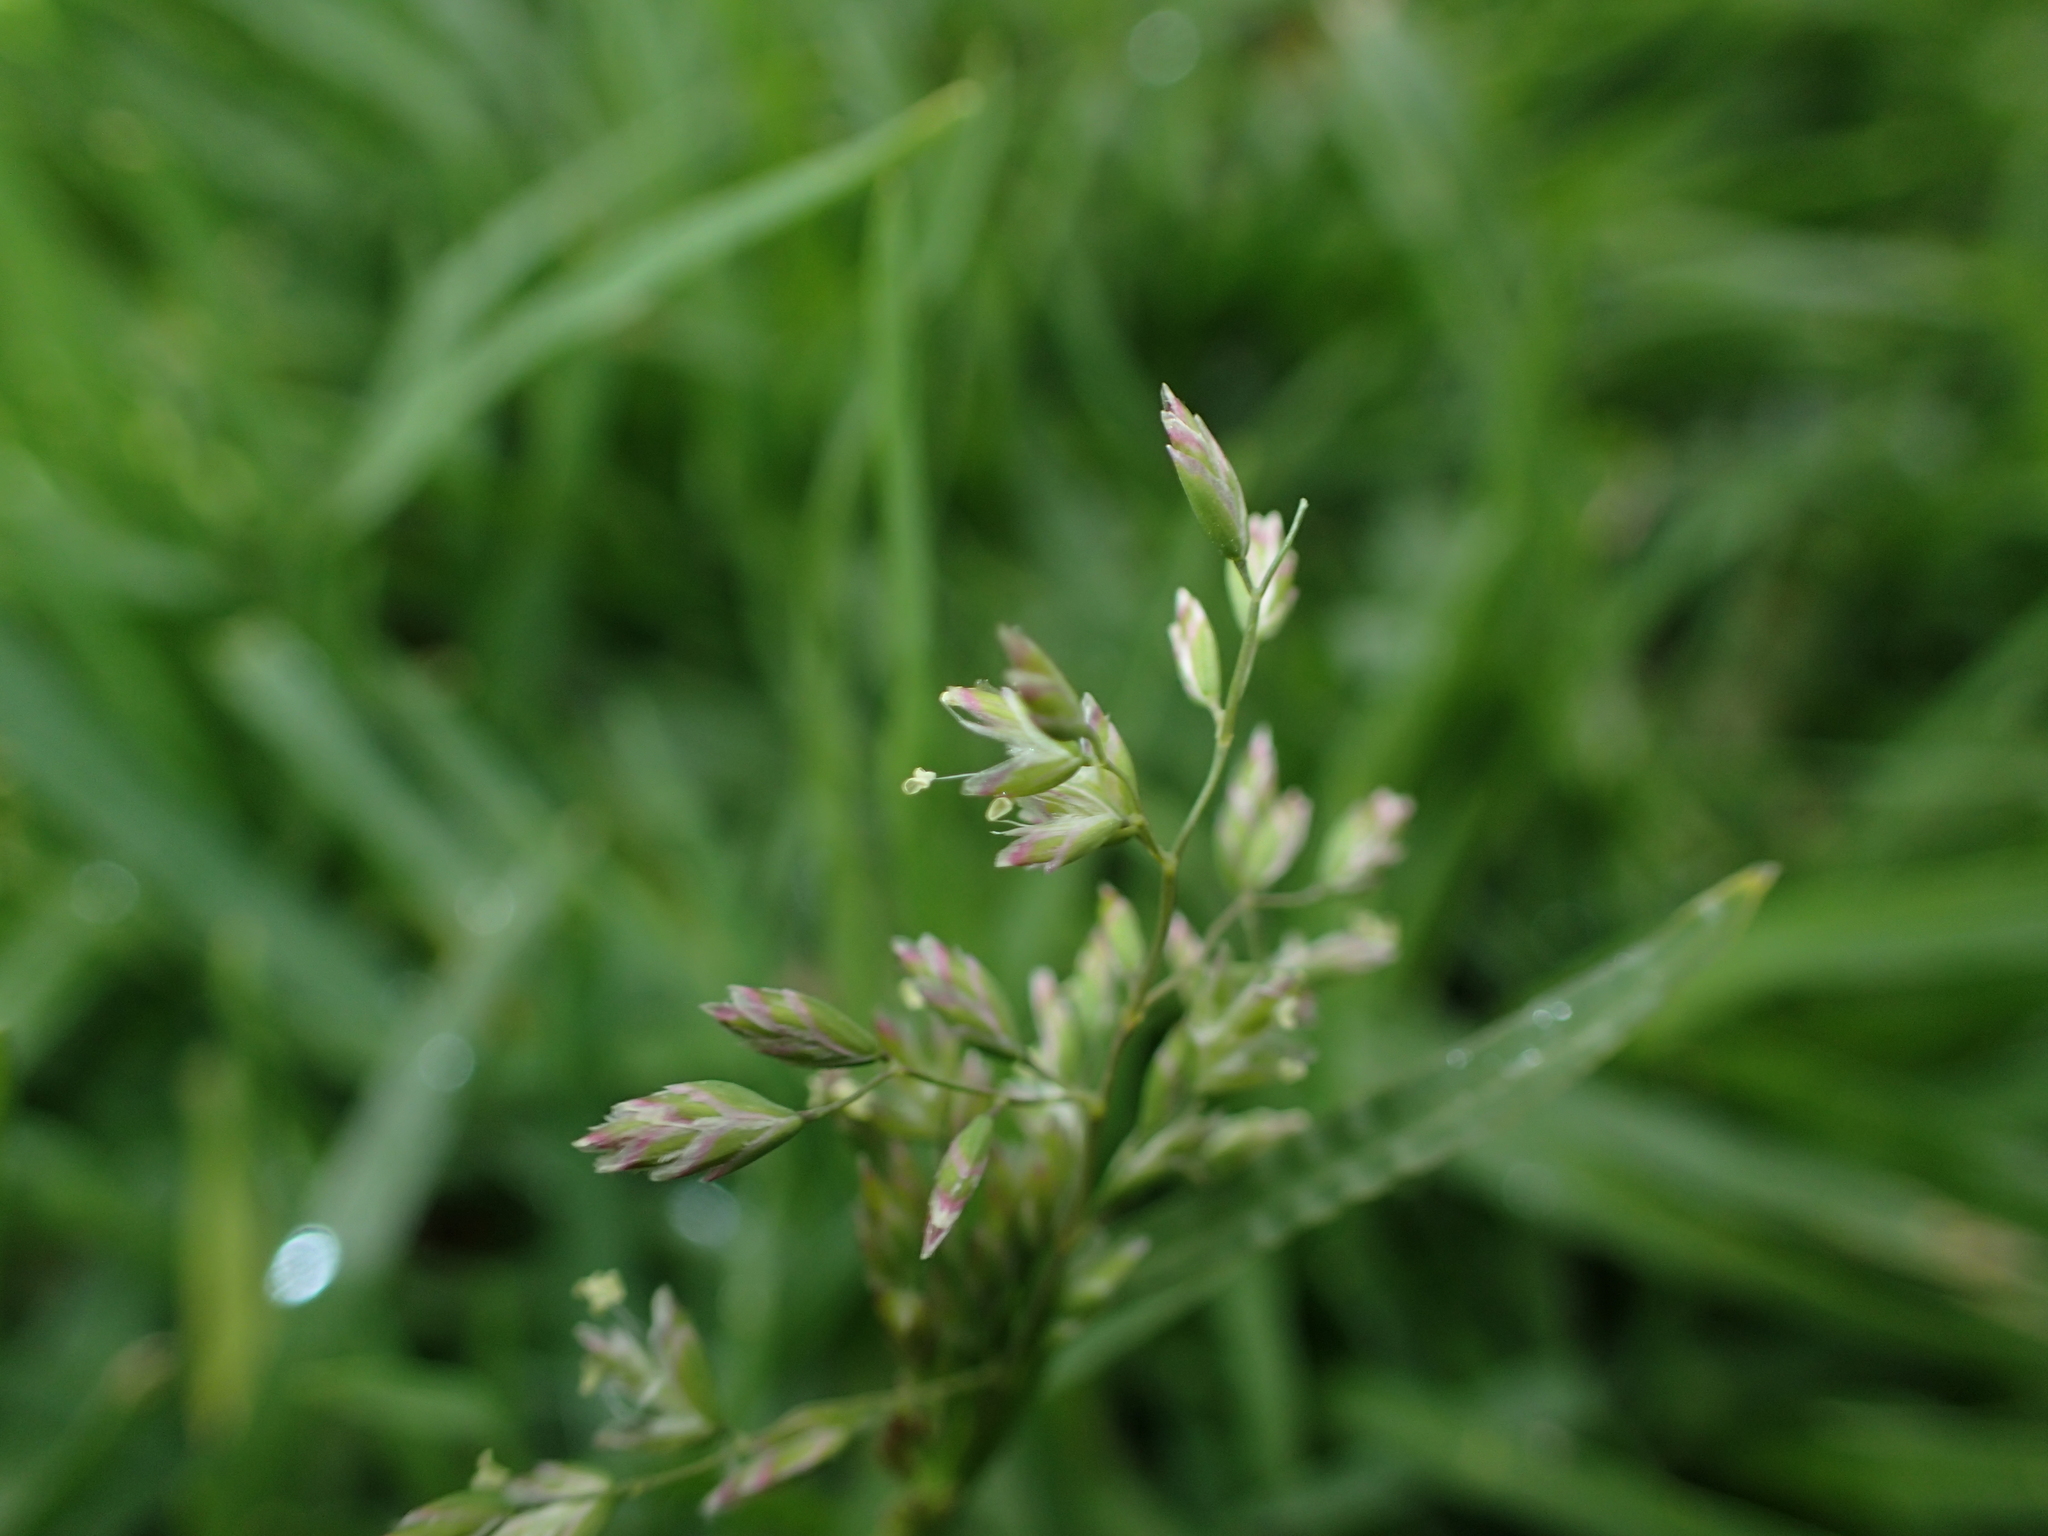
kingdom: Plantae
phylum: Tracheophyta
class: Liliopsida
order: Poales
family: Poaceae
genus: Poa
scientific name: Poa annua
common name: Annual bluegrass
